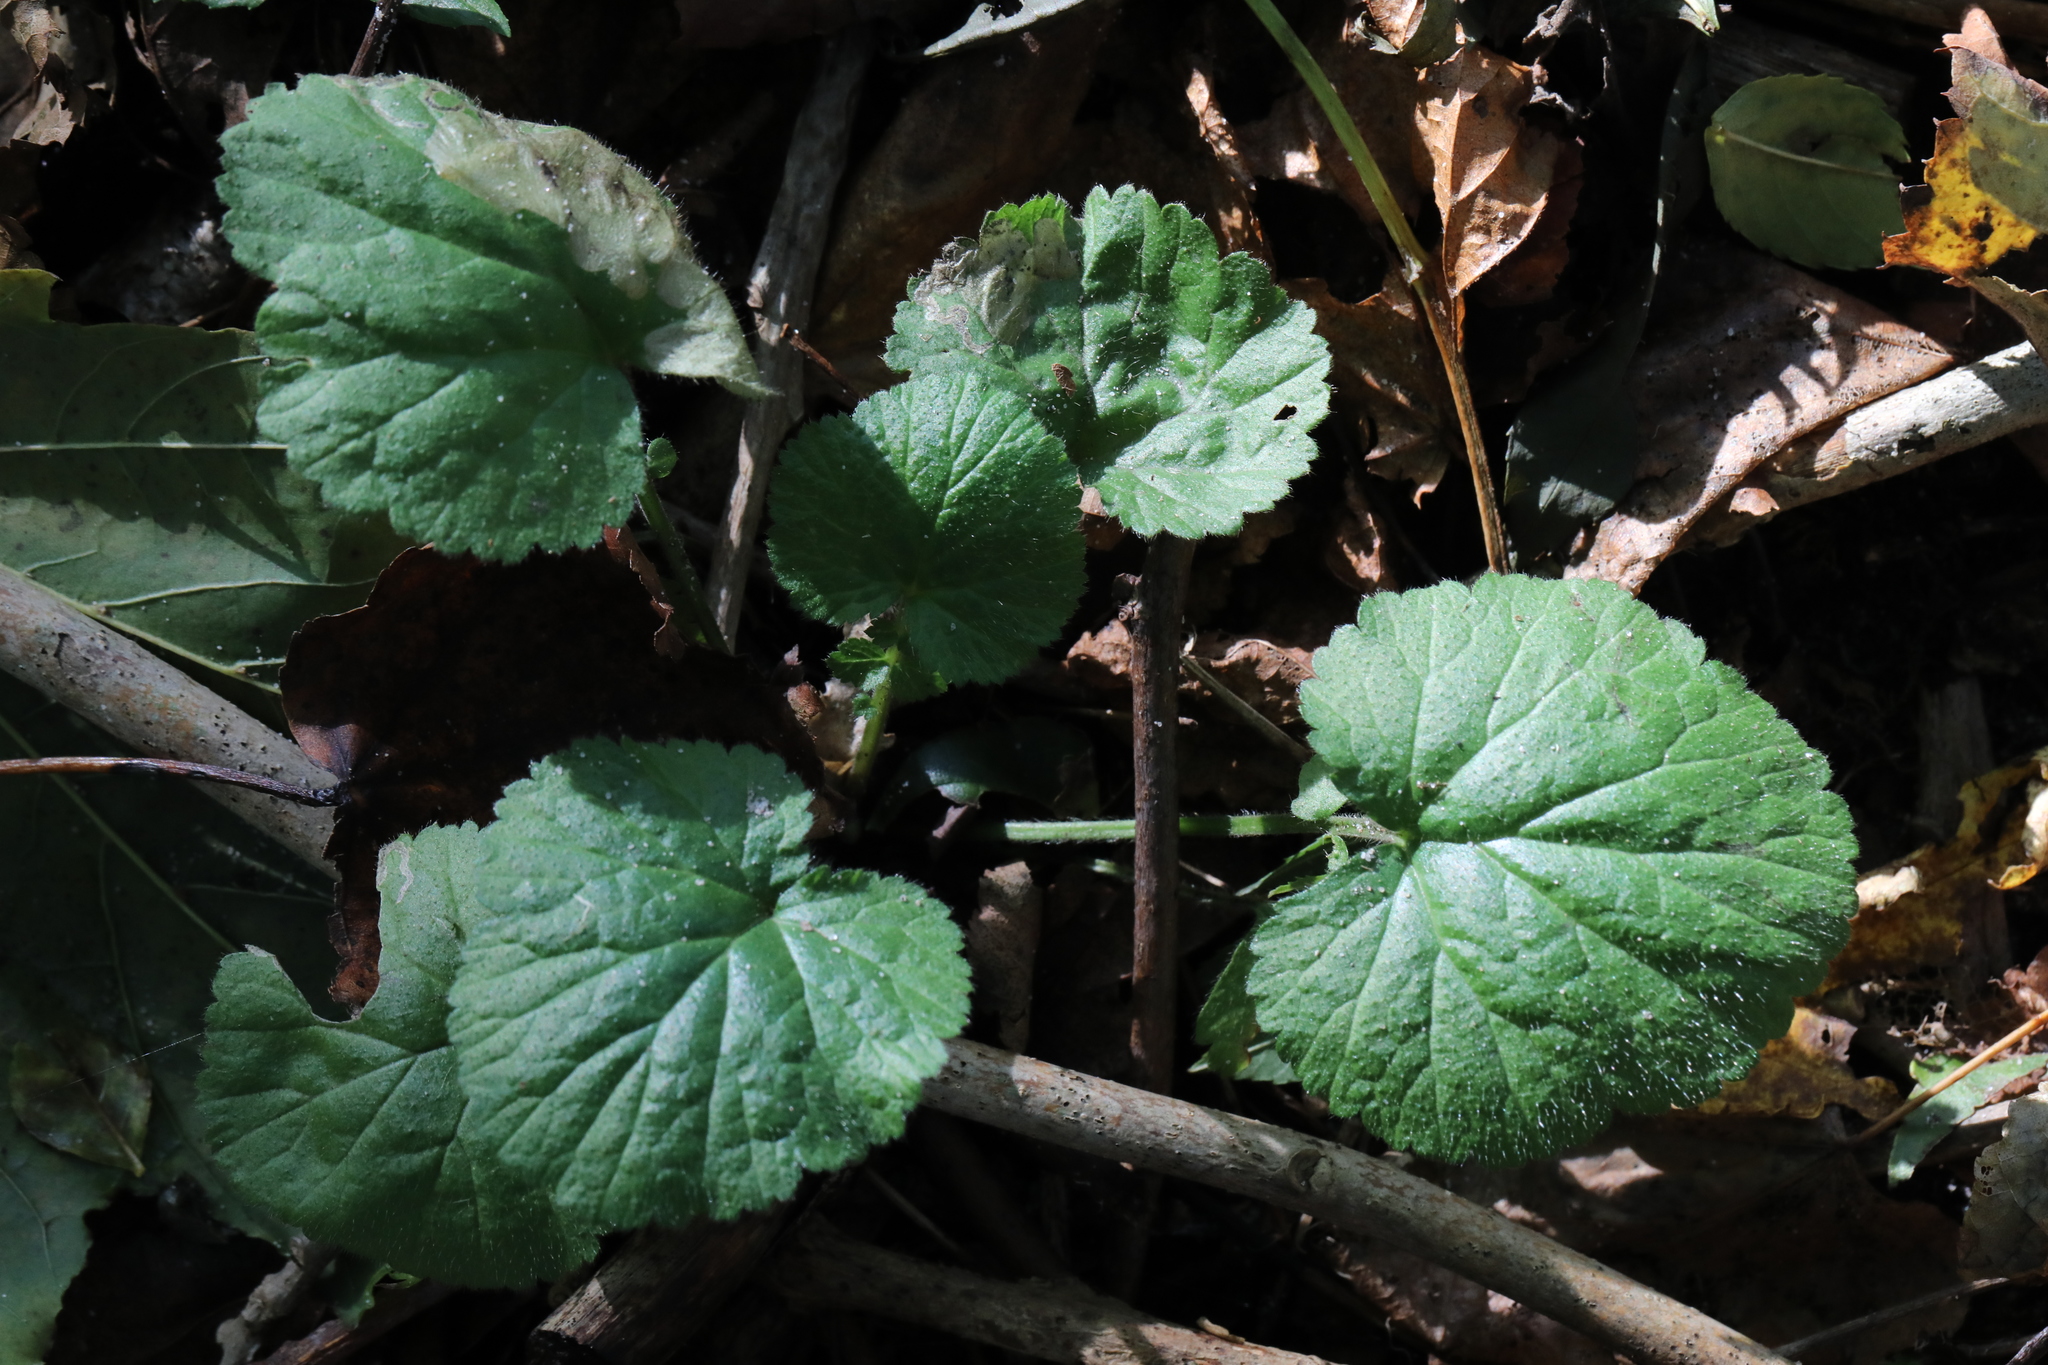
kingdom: Plantae
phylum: Tracheophyta
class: Magnoliopsida
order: Rosales
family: Rosaceae
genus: Geum
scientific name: Geum urbanum
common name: Wood avens
